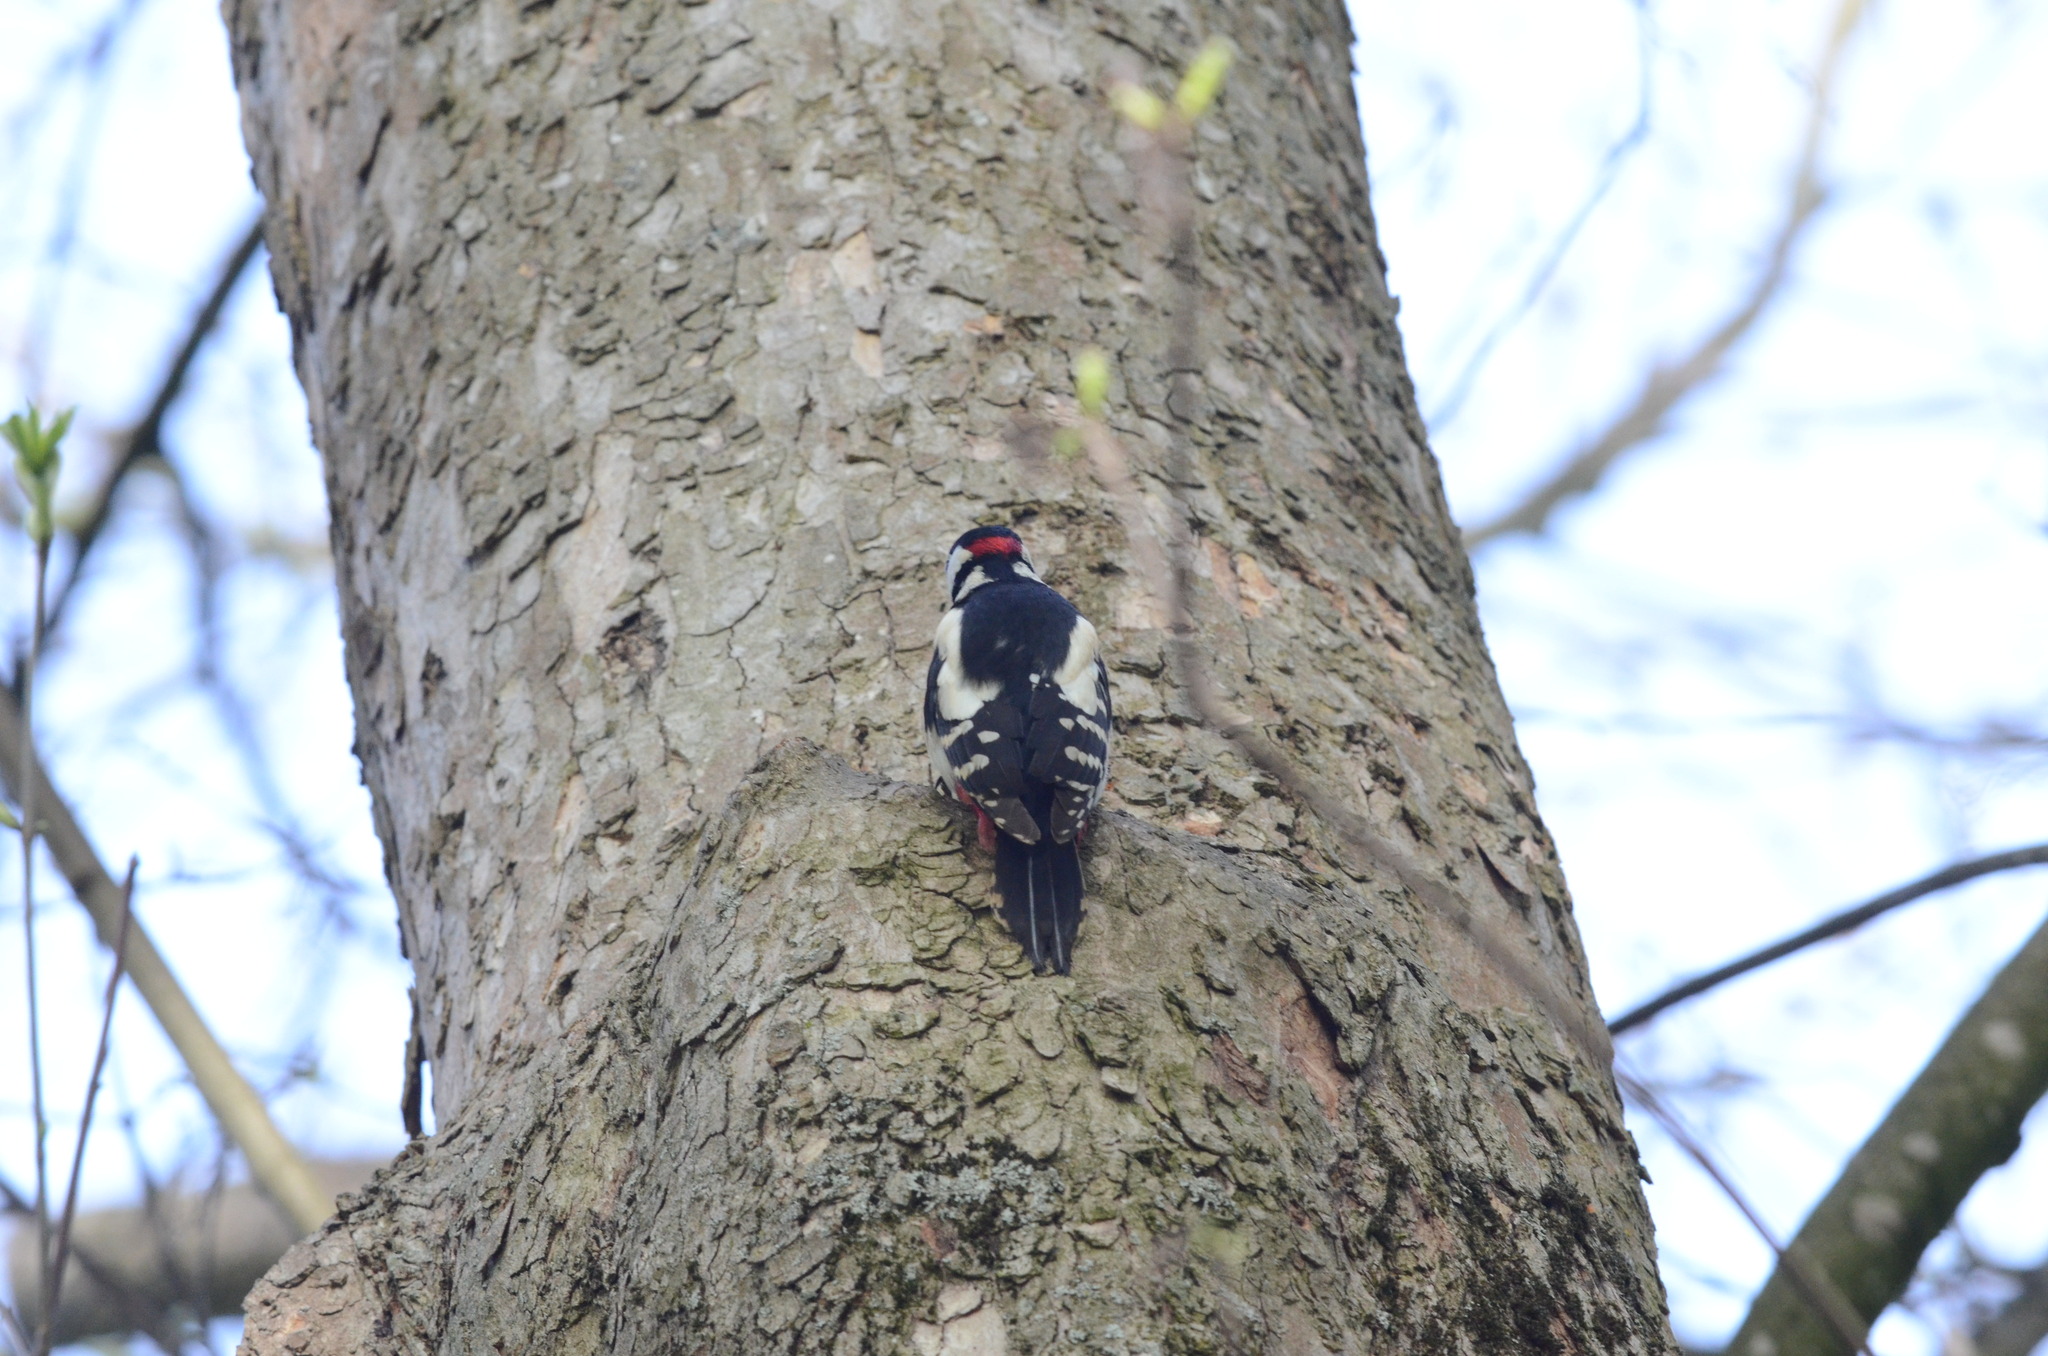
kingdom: Animalia
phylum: Chordata
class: Aves
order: Piciformes
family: Picidae
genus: Dendrocopos
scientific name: Dendrocopos major
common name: Great spotted woodpecker
